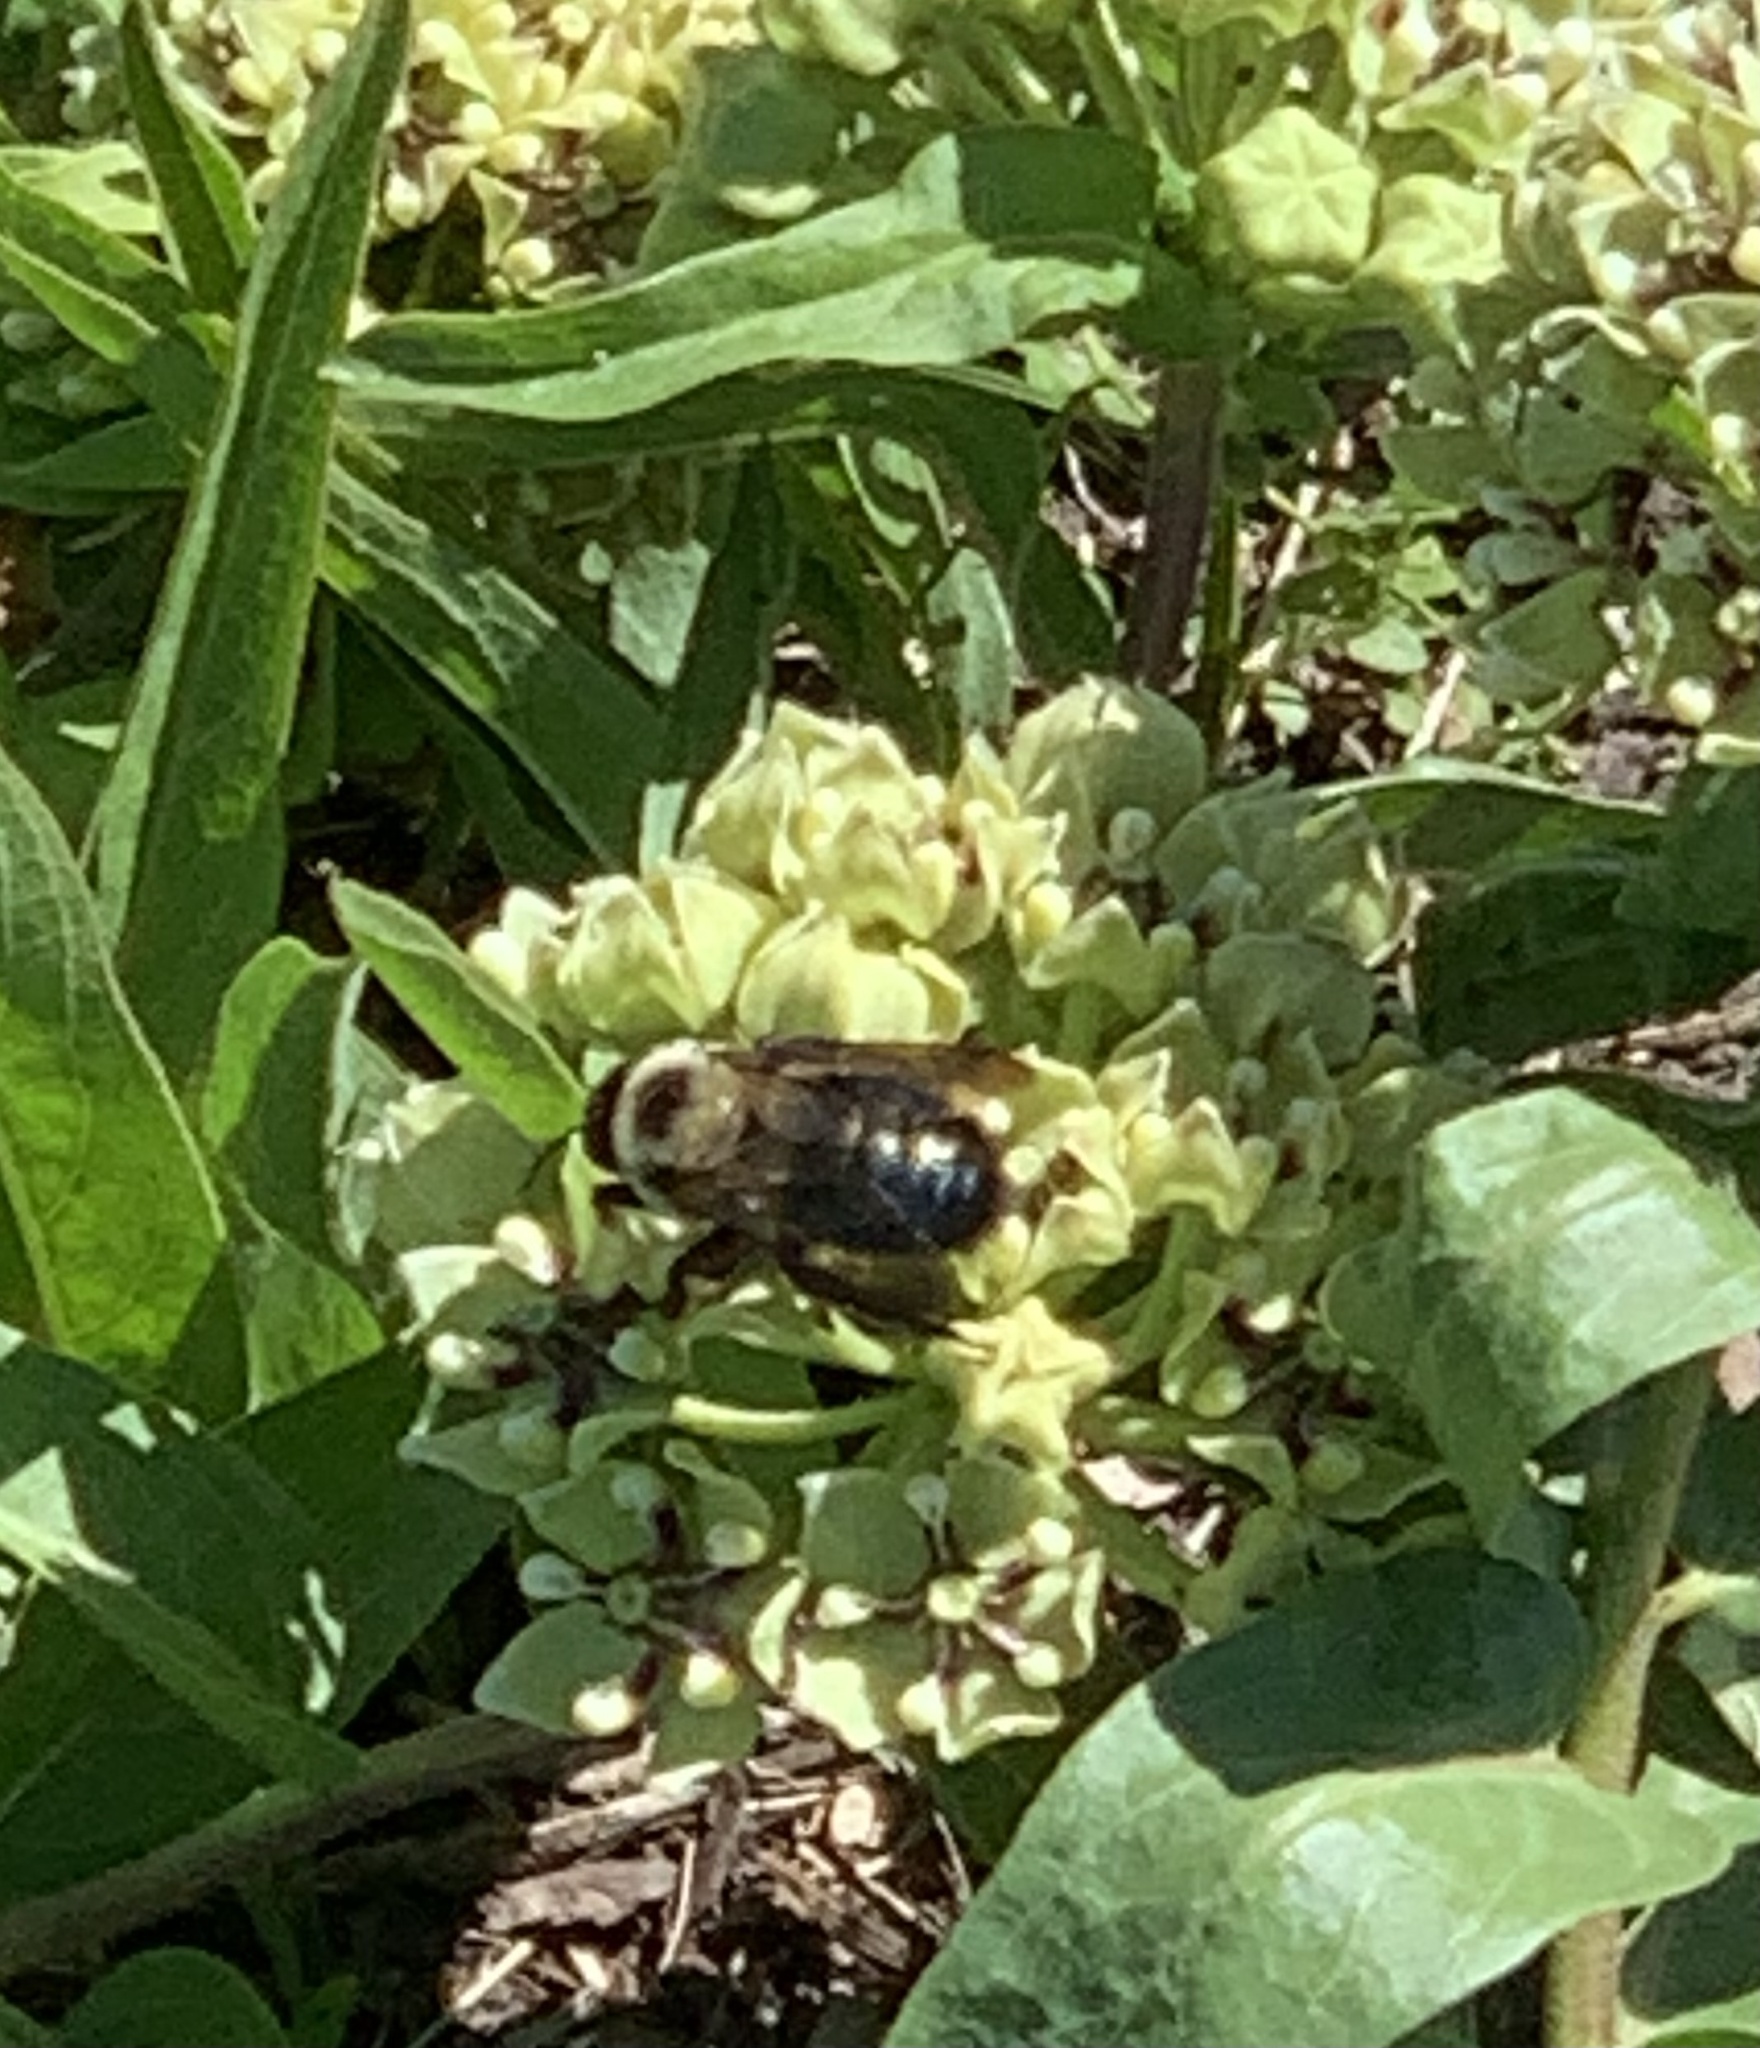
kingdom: Animalia
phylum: Arthropoda
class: Insecta
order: Hymenoptera
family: Apidae
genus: Xylocopa
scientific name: Xylocopa virginica
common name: Carpenter bee
